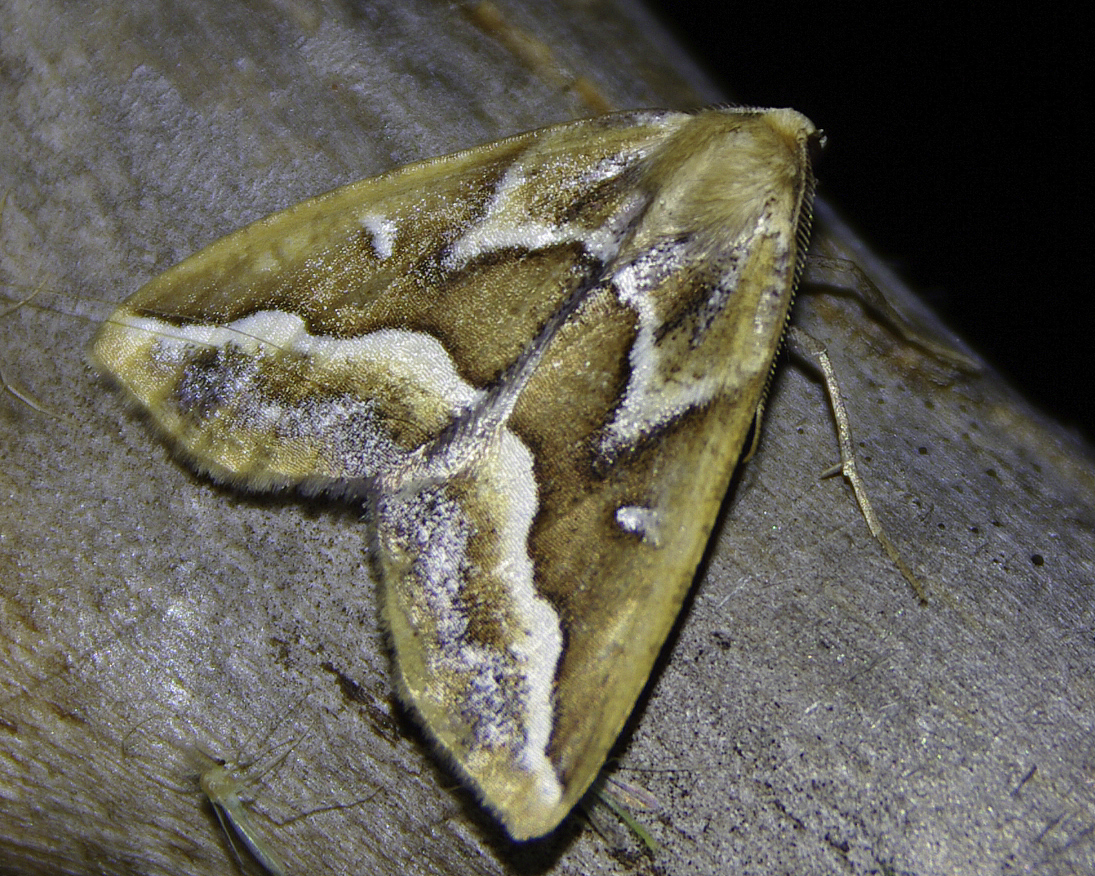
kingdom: Animalia
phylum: Arthropoda
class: Insecta
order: Lepidoptera
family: Geometridae
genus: Caripeta
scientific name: Caripeta angustiorata
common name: Brown pine looper
